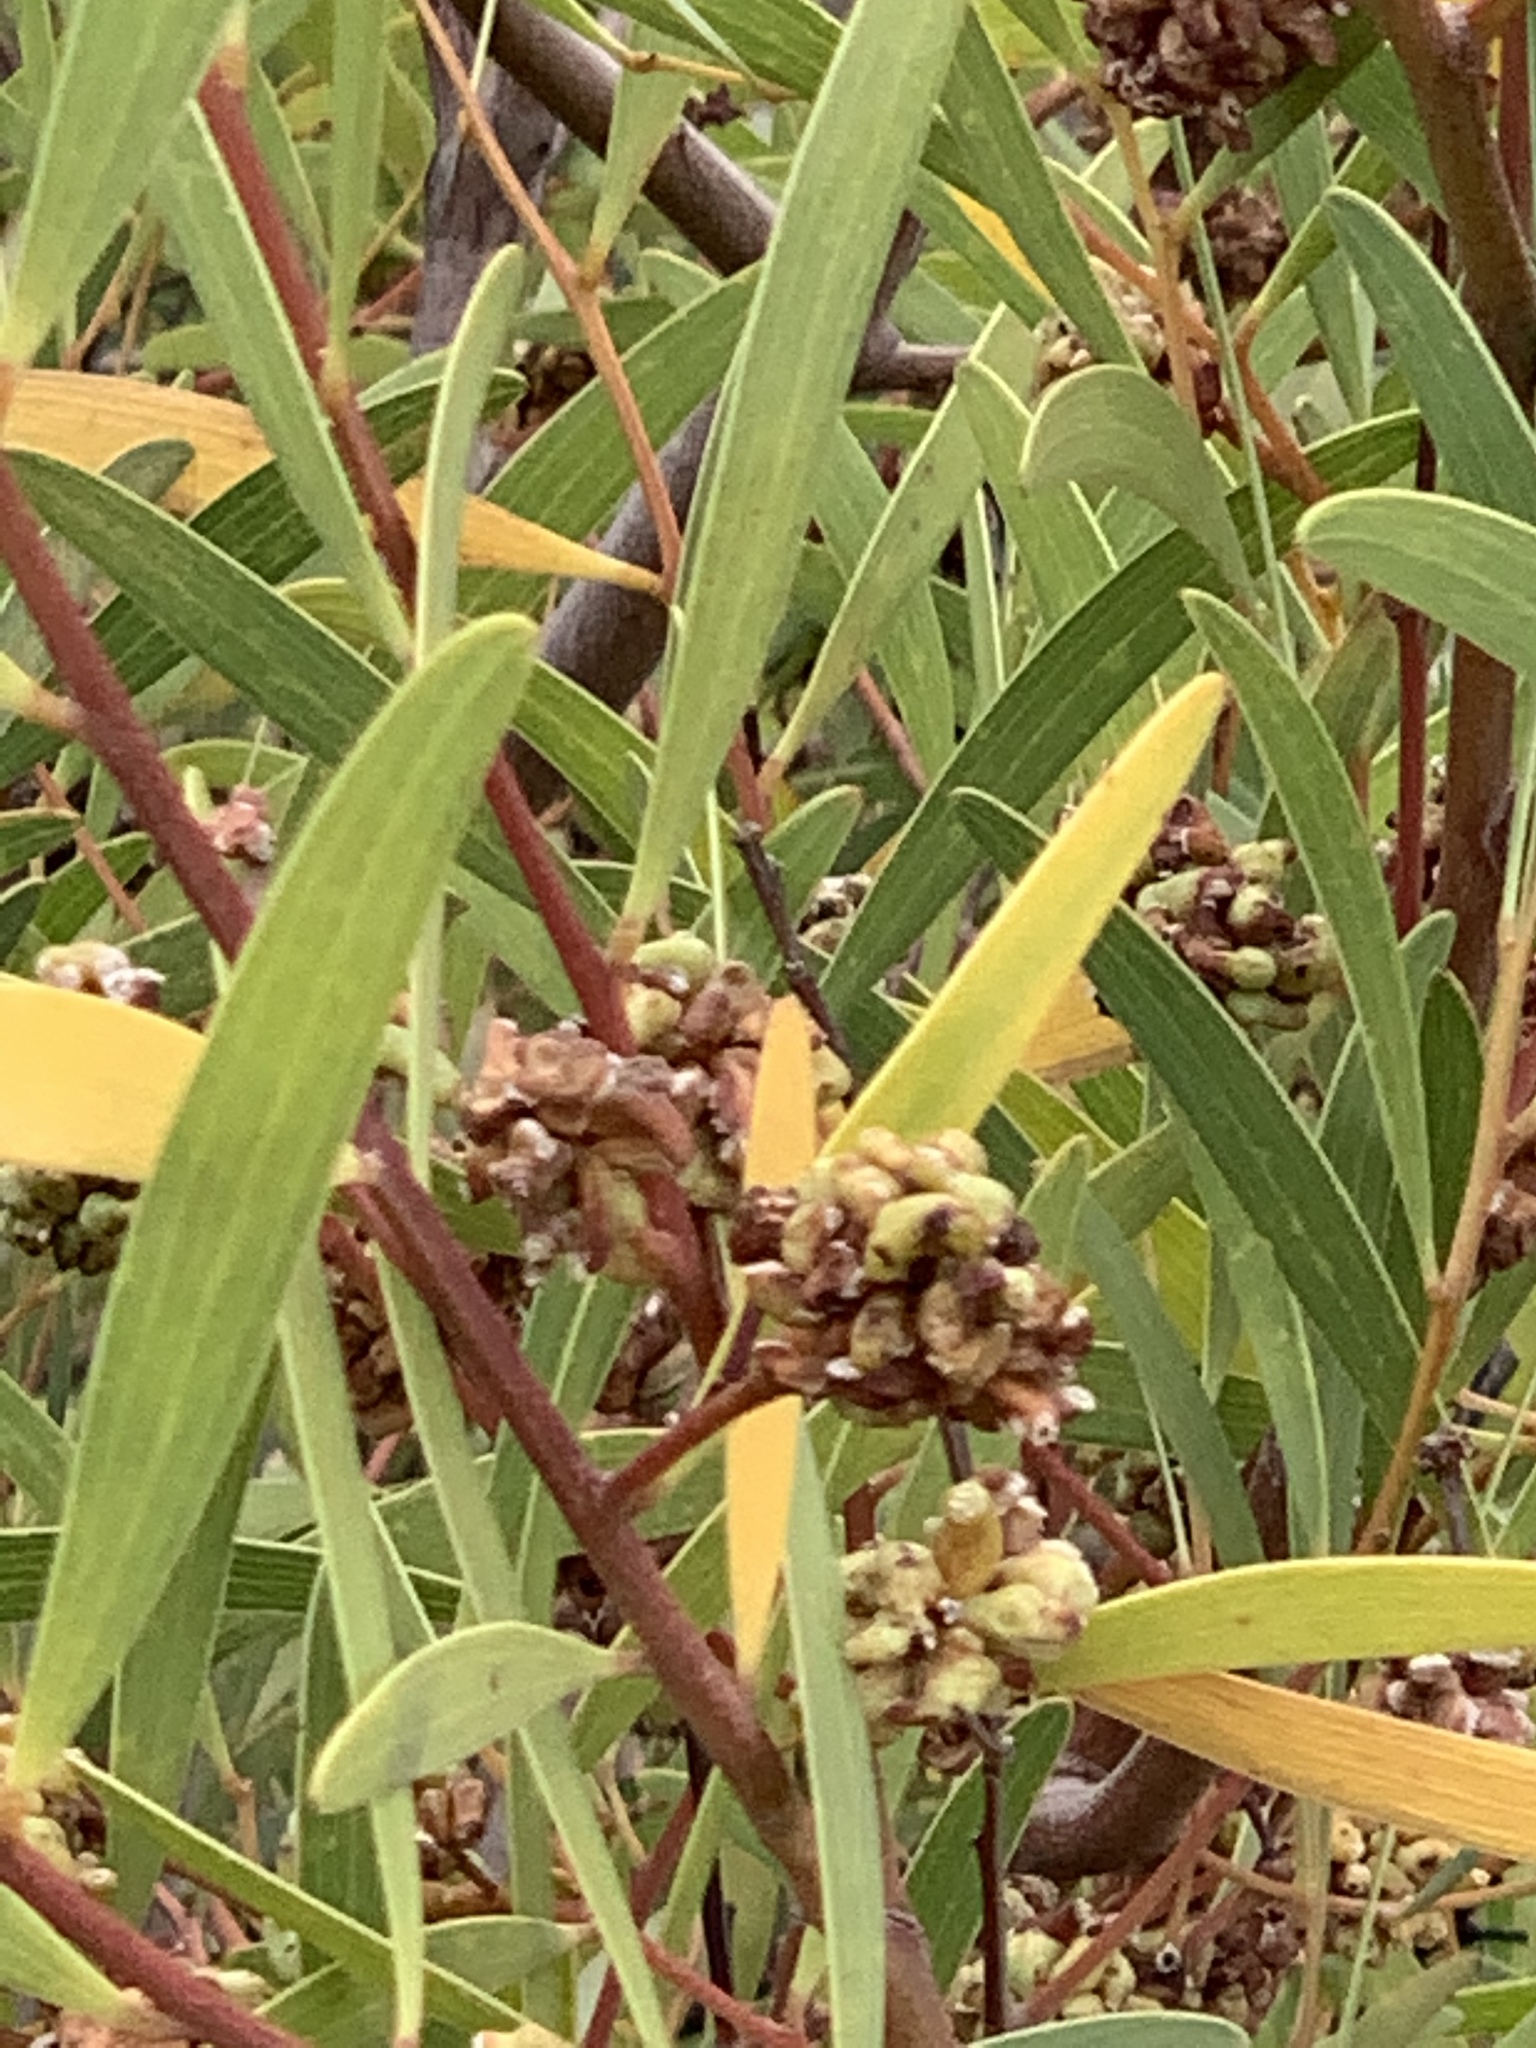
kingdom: Animalia
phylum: Arthropoda
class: Insecta
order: Diptera
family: Cecidomyiidae
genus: Dasineura
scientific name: Dasineura dielsi
